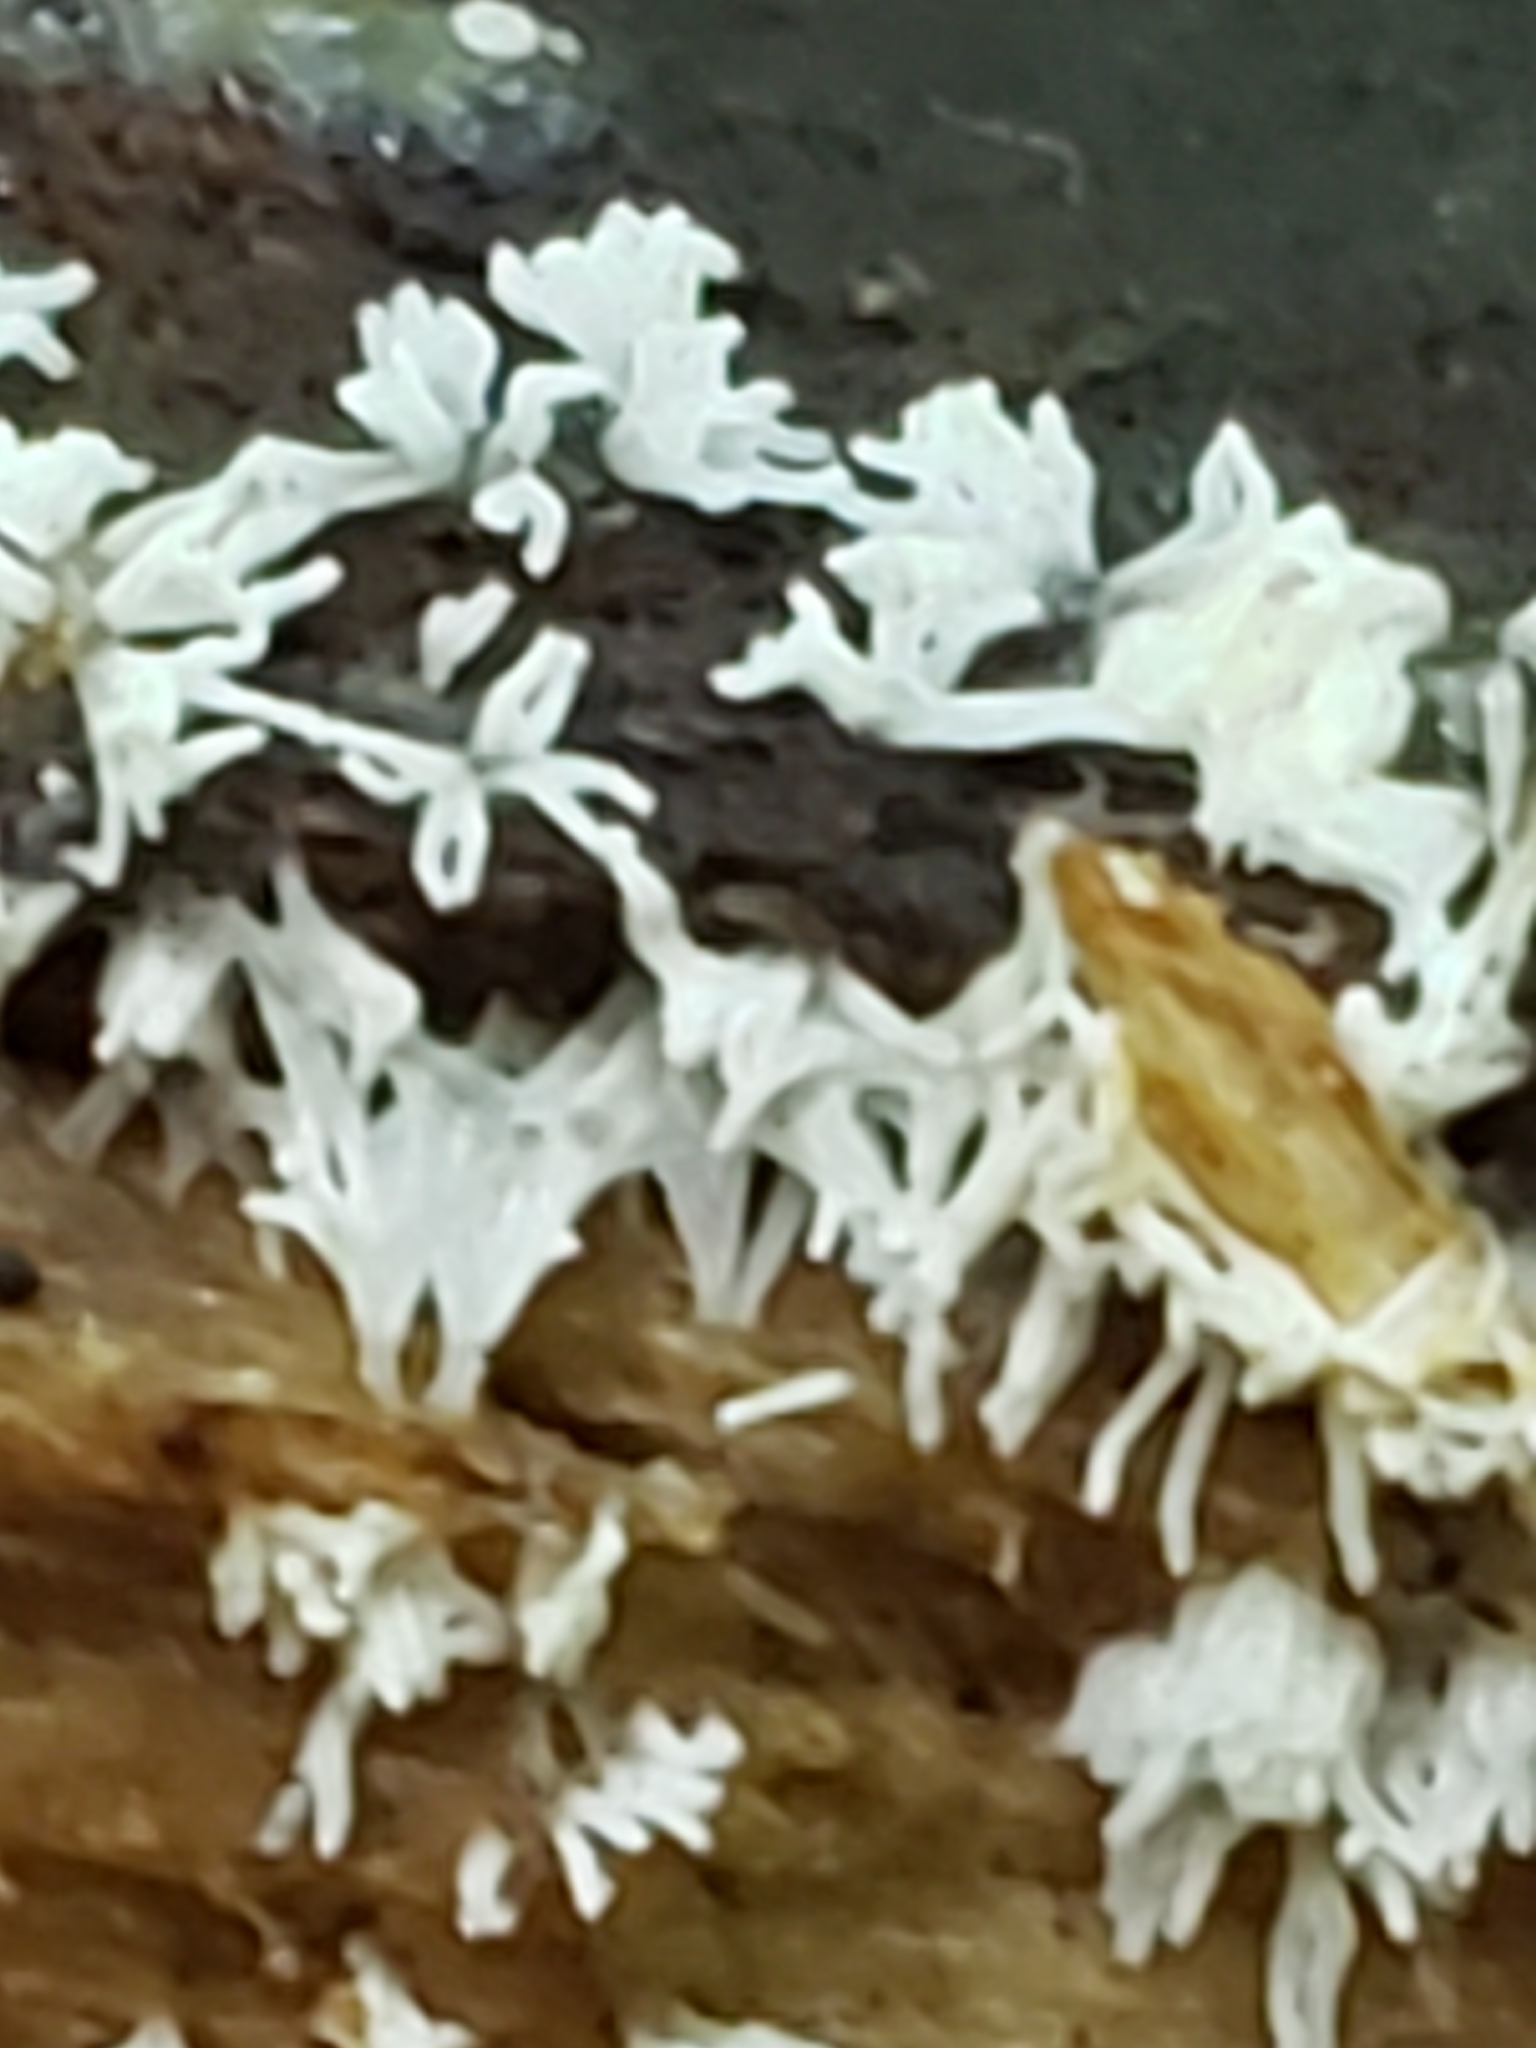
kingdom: Protozoa
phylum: Mycetozoa
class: Protosteliomycetes
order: Ceratiomyxales
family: Ceratiomyxaceae
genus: Ceratiomyxa
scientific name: Ceratiomyxa fruticulosa
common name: Honeycomb coral slime mold
